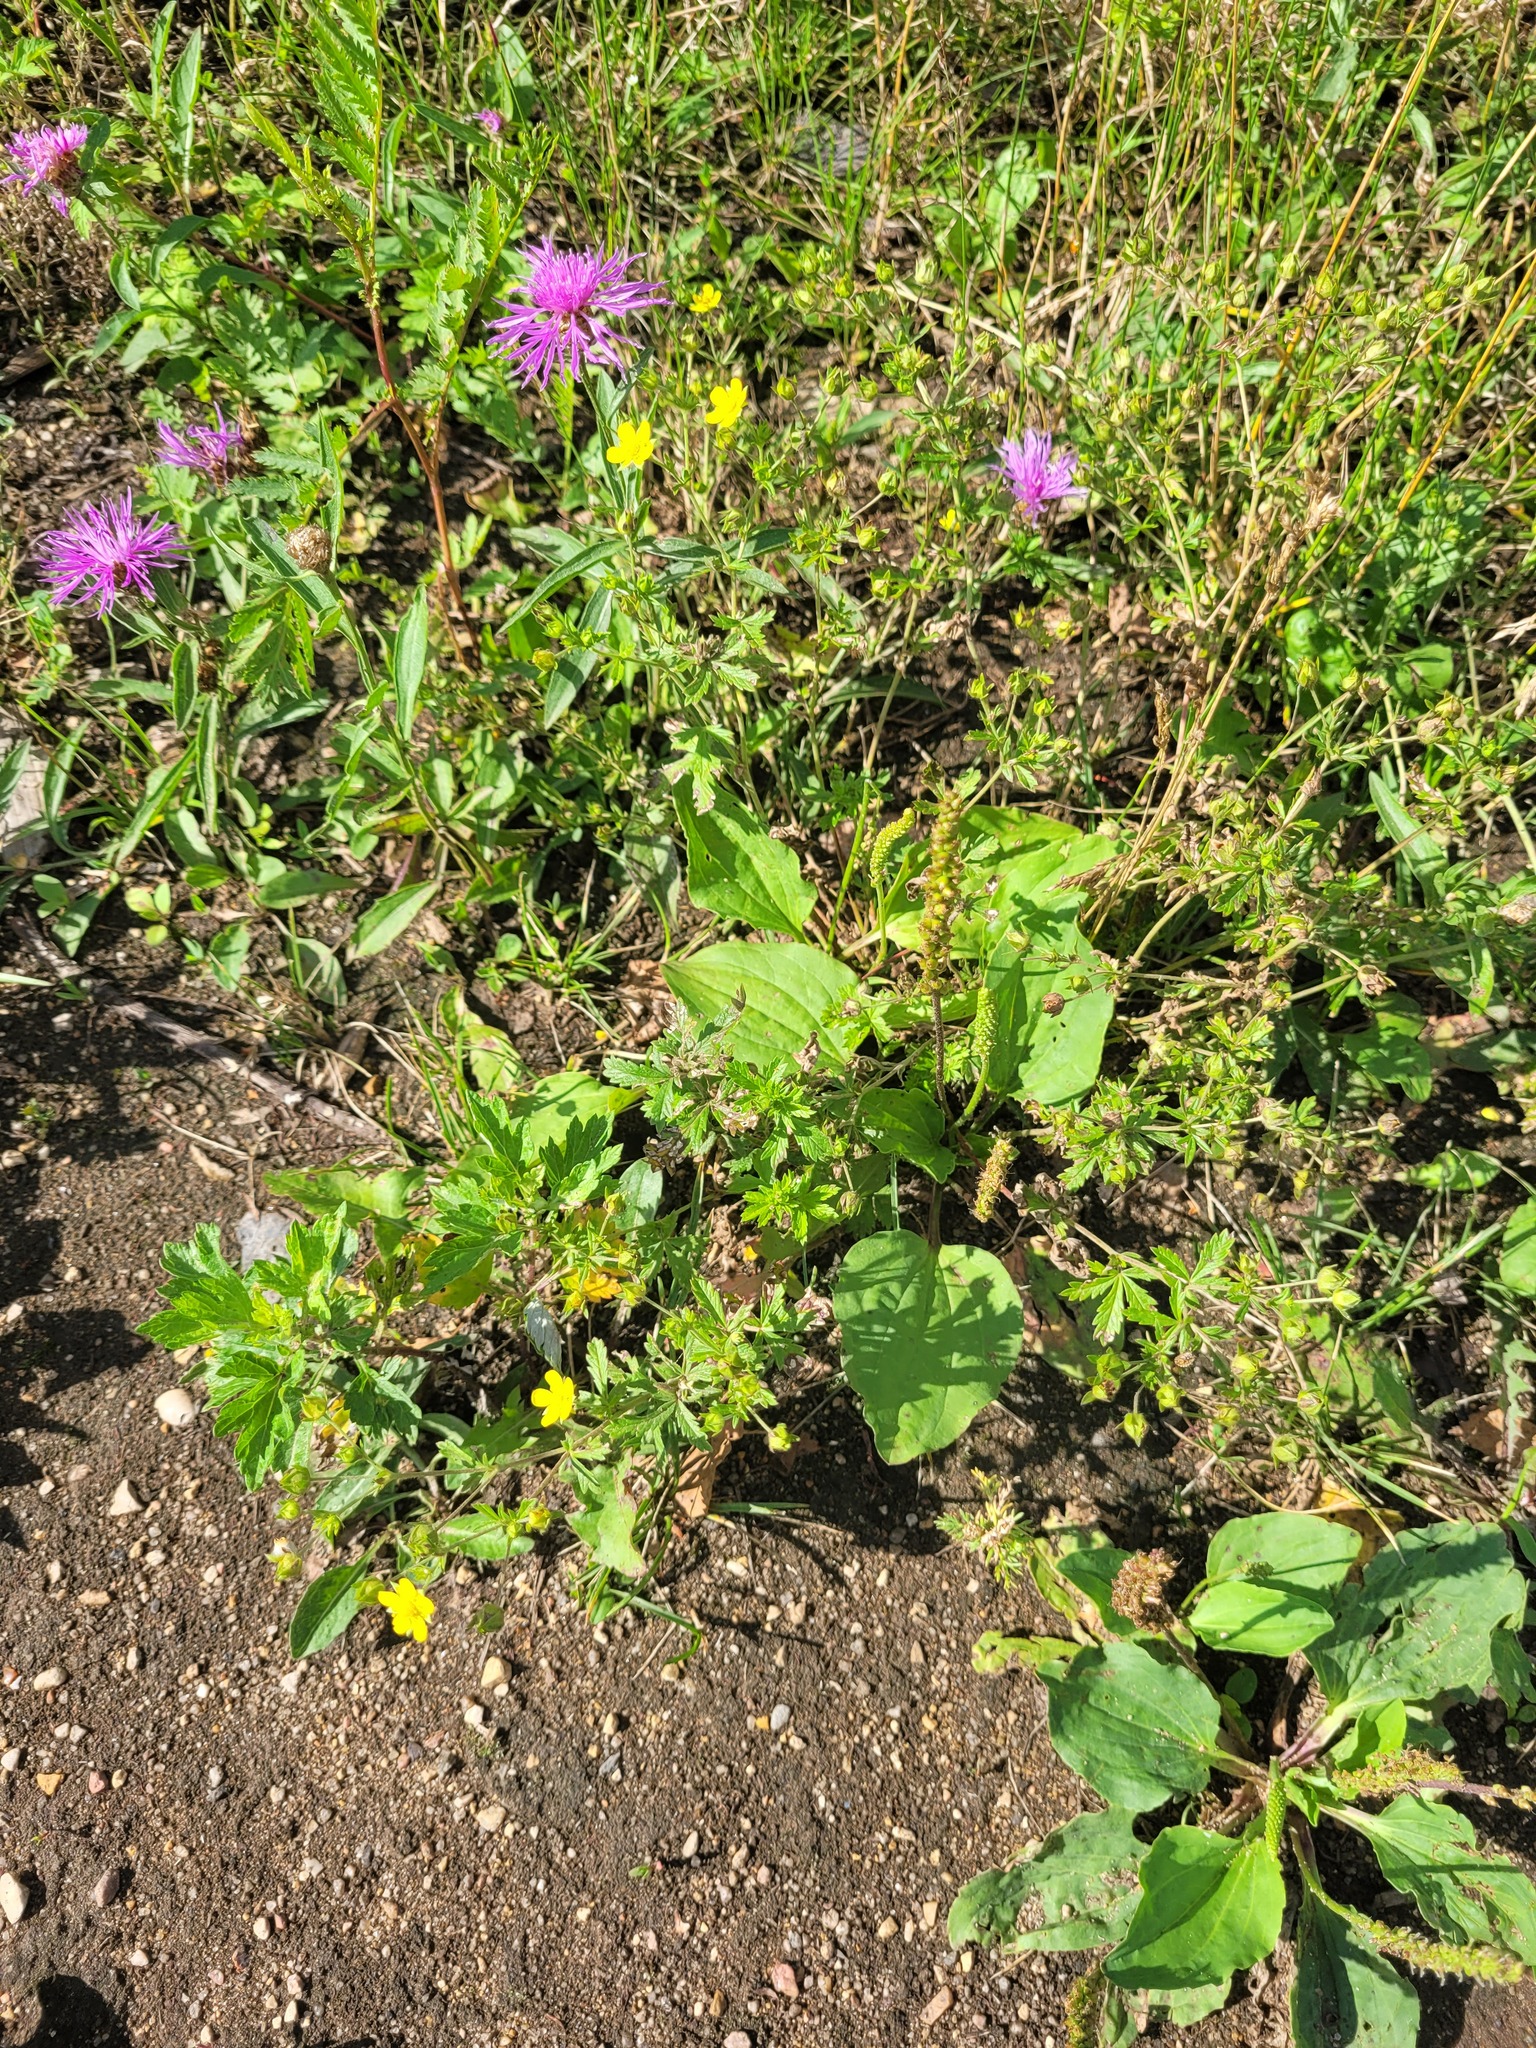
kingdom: Plantae
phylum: Tracheophyta
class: Magnoliopsida
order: Asterales
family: Asteraceae
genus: Centaurea
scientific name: Centaurea jacea
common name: Brown knapweed
